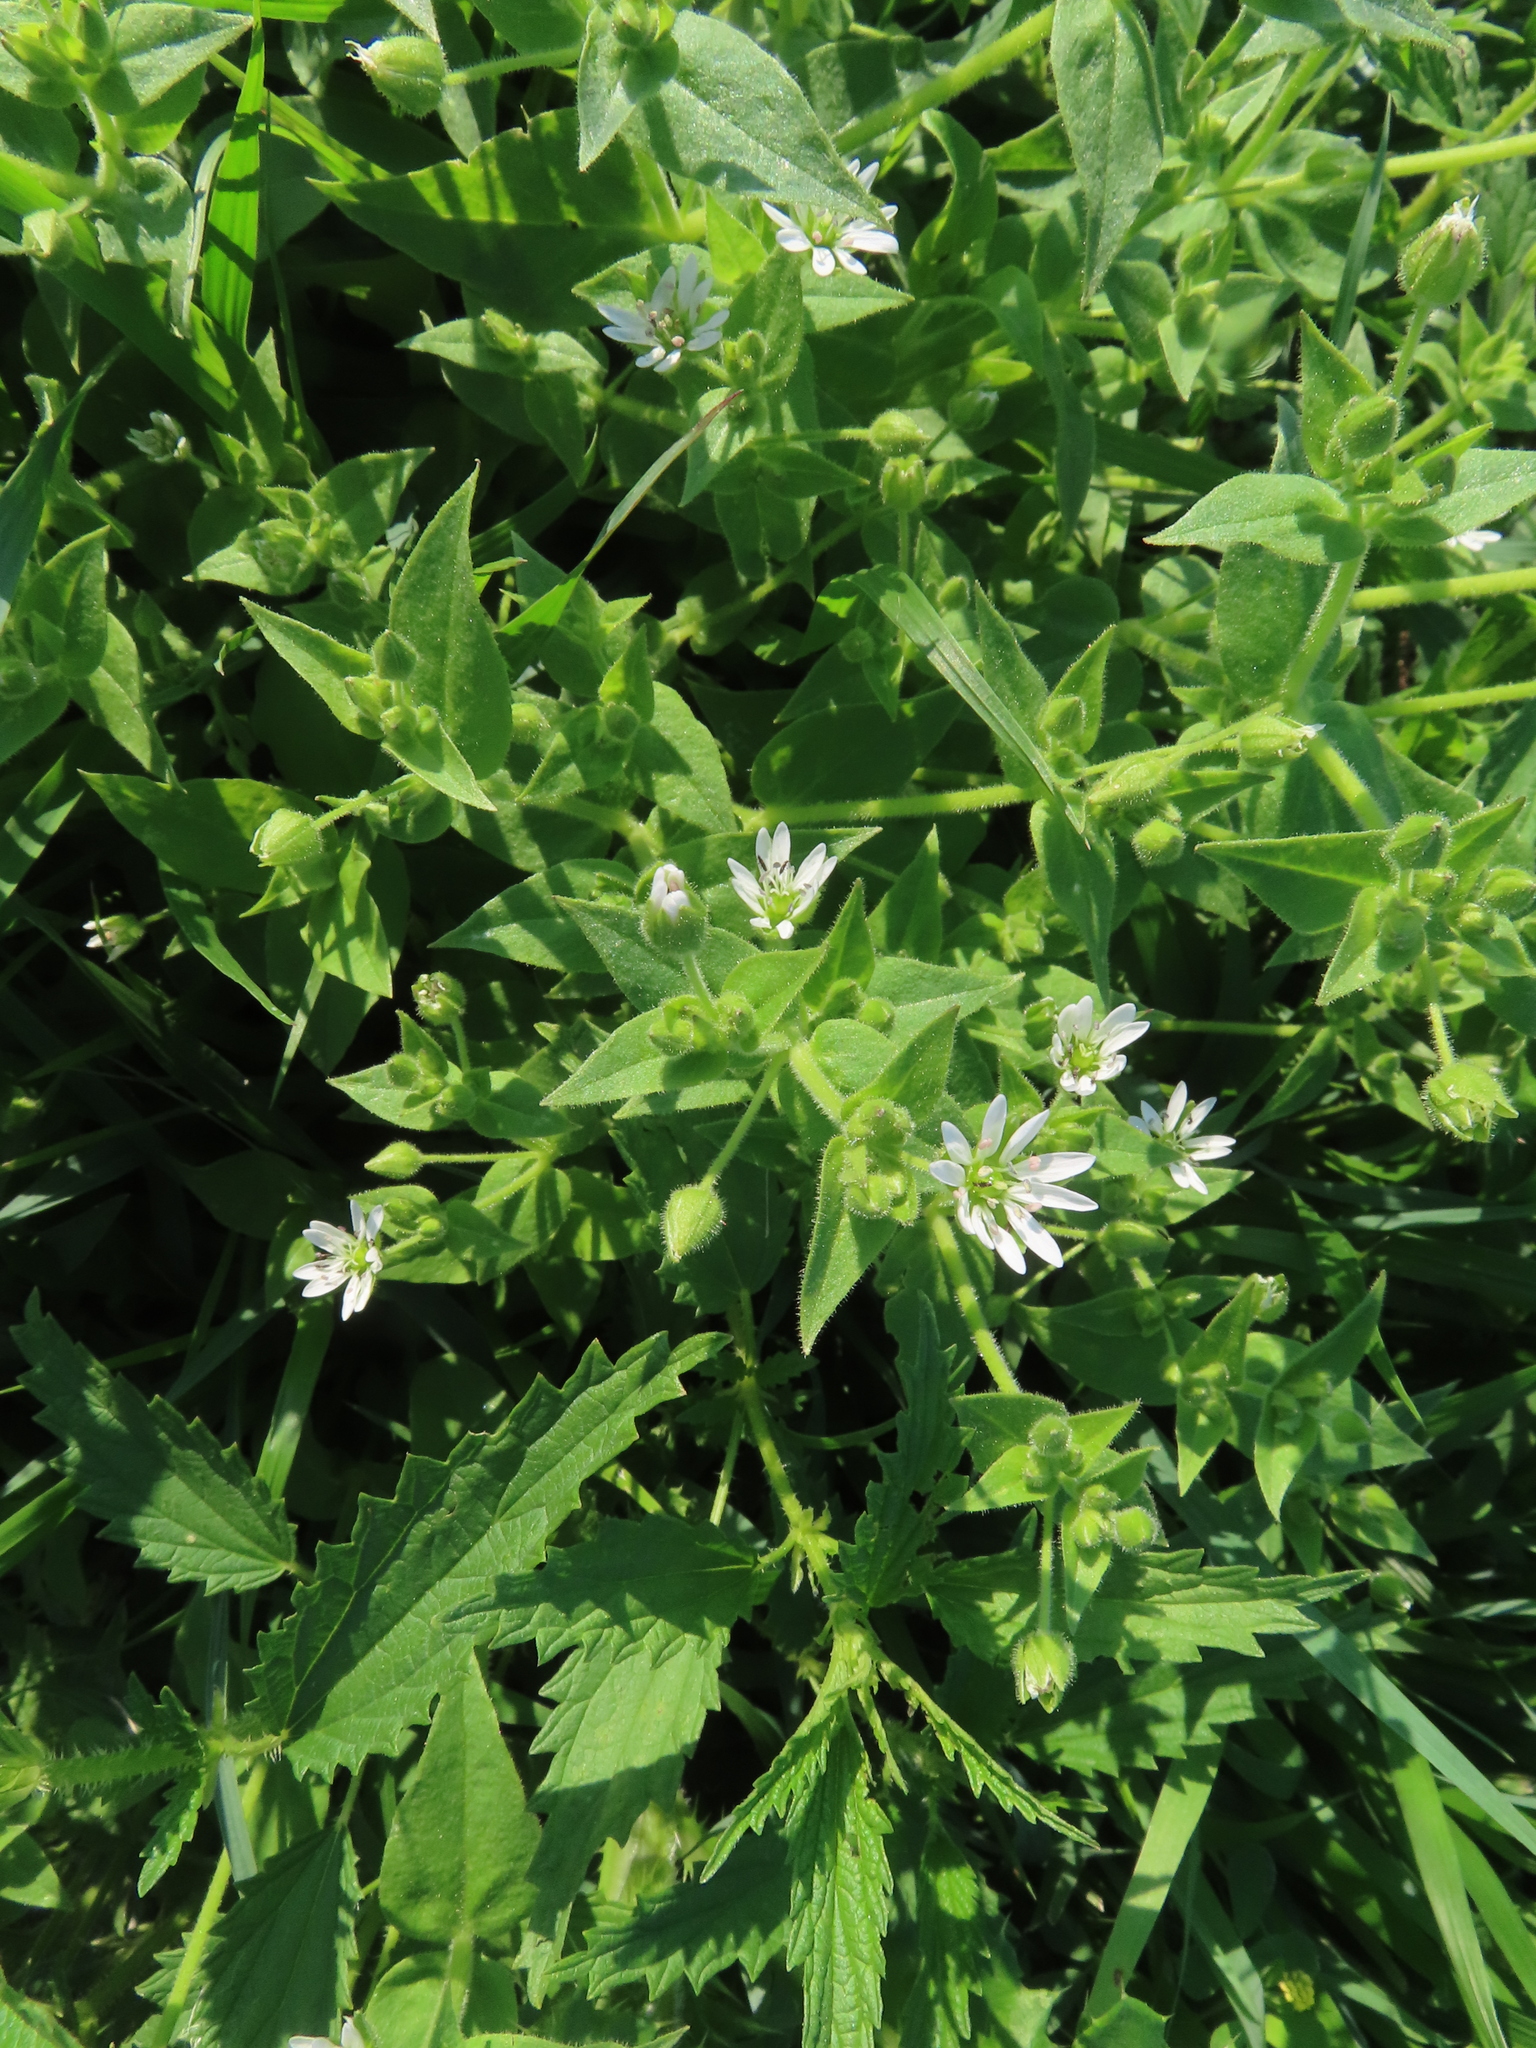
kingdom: Plantae
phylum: Tracheophyta
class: Magnoliopsida
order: Caryophyllales
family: Caryophyllaceae
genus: Stellaria
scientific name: Stellaria aquatica
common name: Water chickweed
